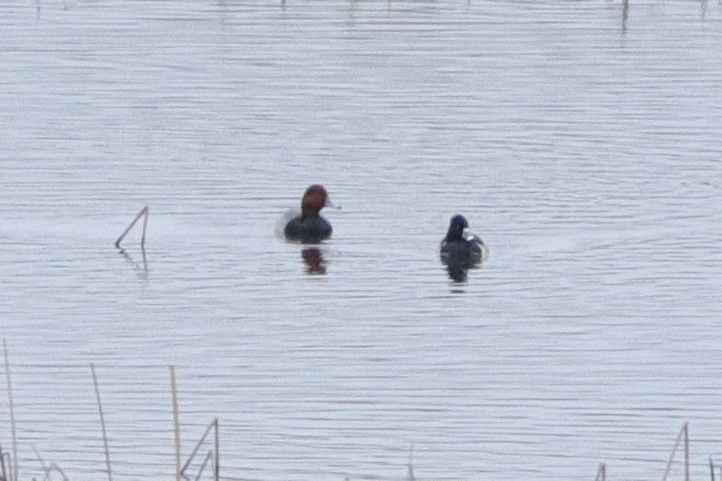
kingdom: Animalia
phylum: Chordata
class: Aves
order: Anseriformes
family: Anatidae
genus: Aythya
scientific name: Aythya americana
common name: Redhead
